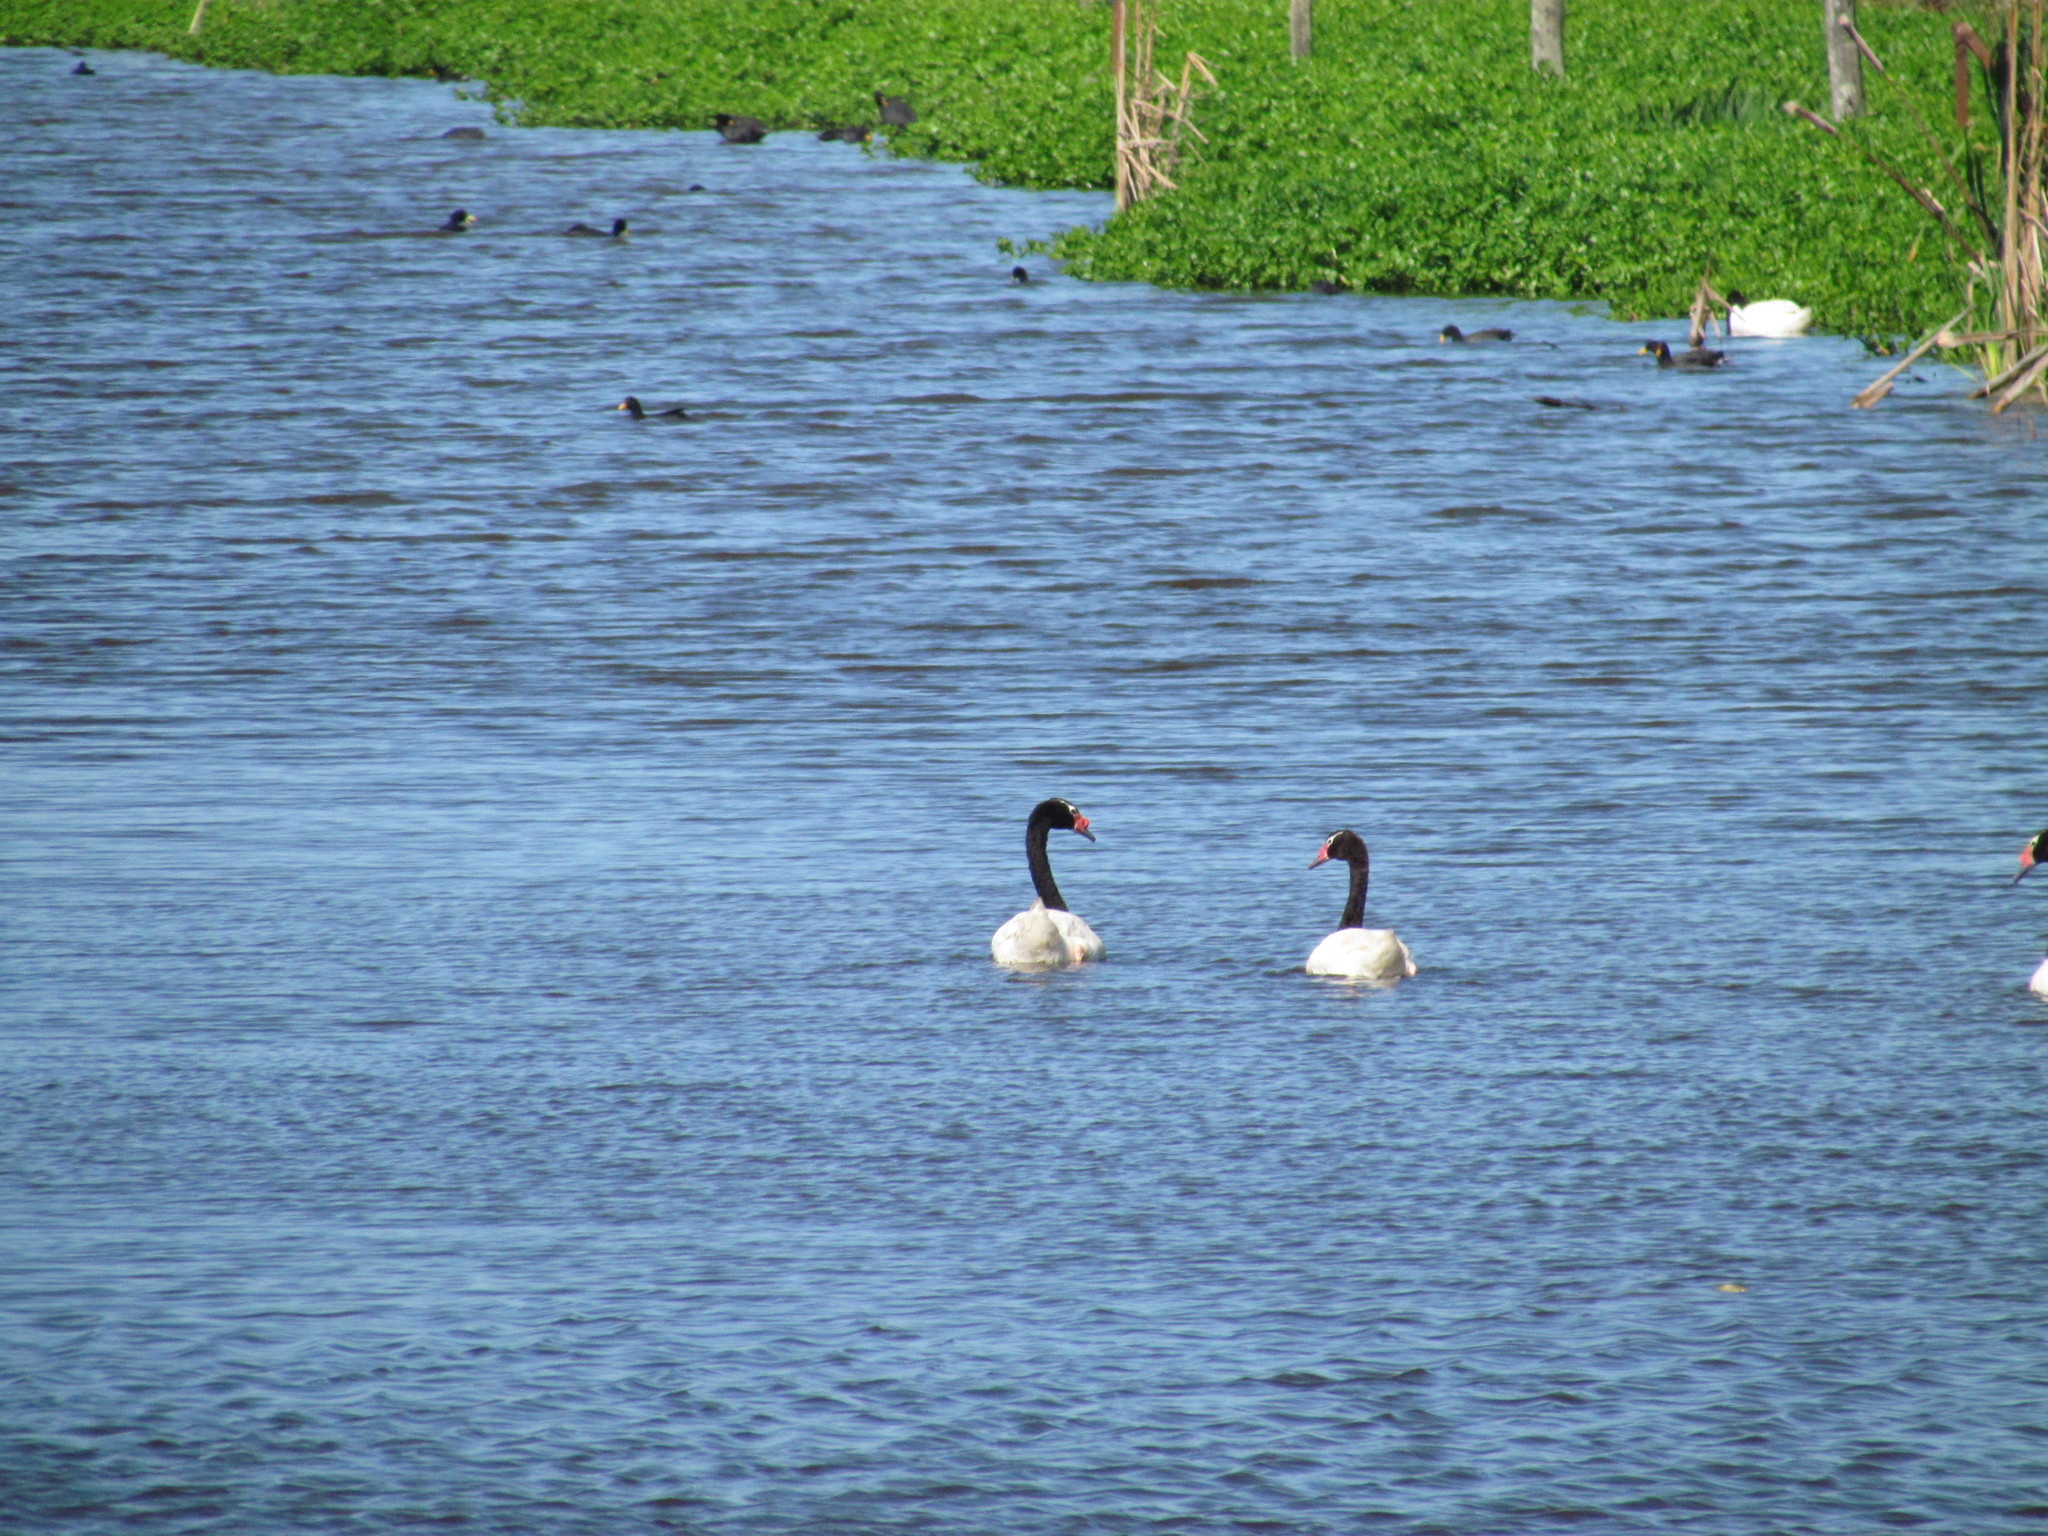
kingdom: Animalia
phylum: Chordata
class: Aves
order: Anseriformes
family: Anatidae
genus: Cygnus
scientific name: Cygnus melancoryphus
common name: Black-necked swan
